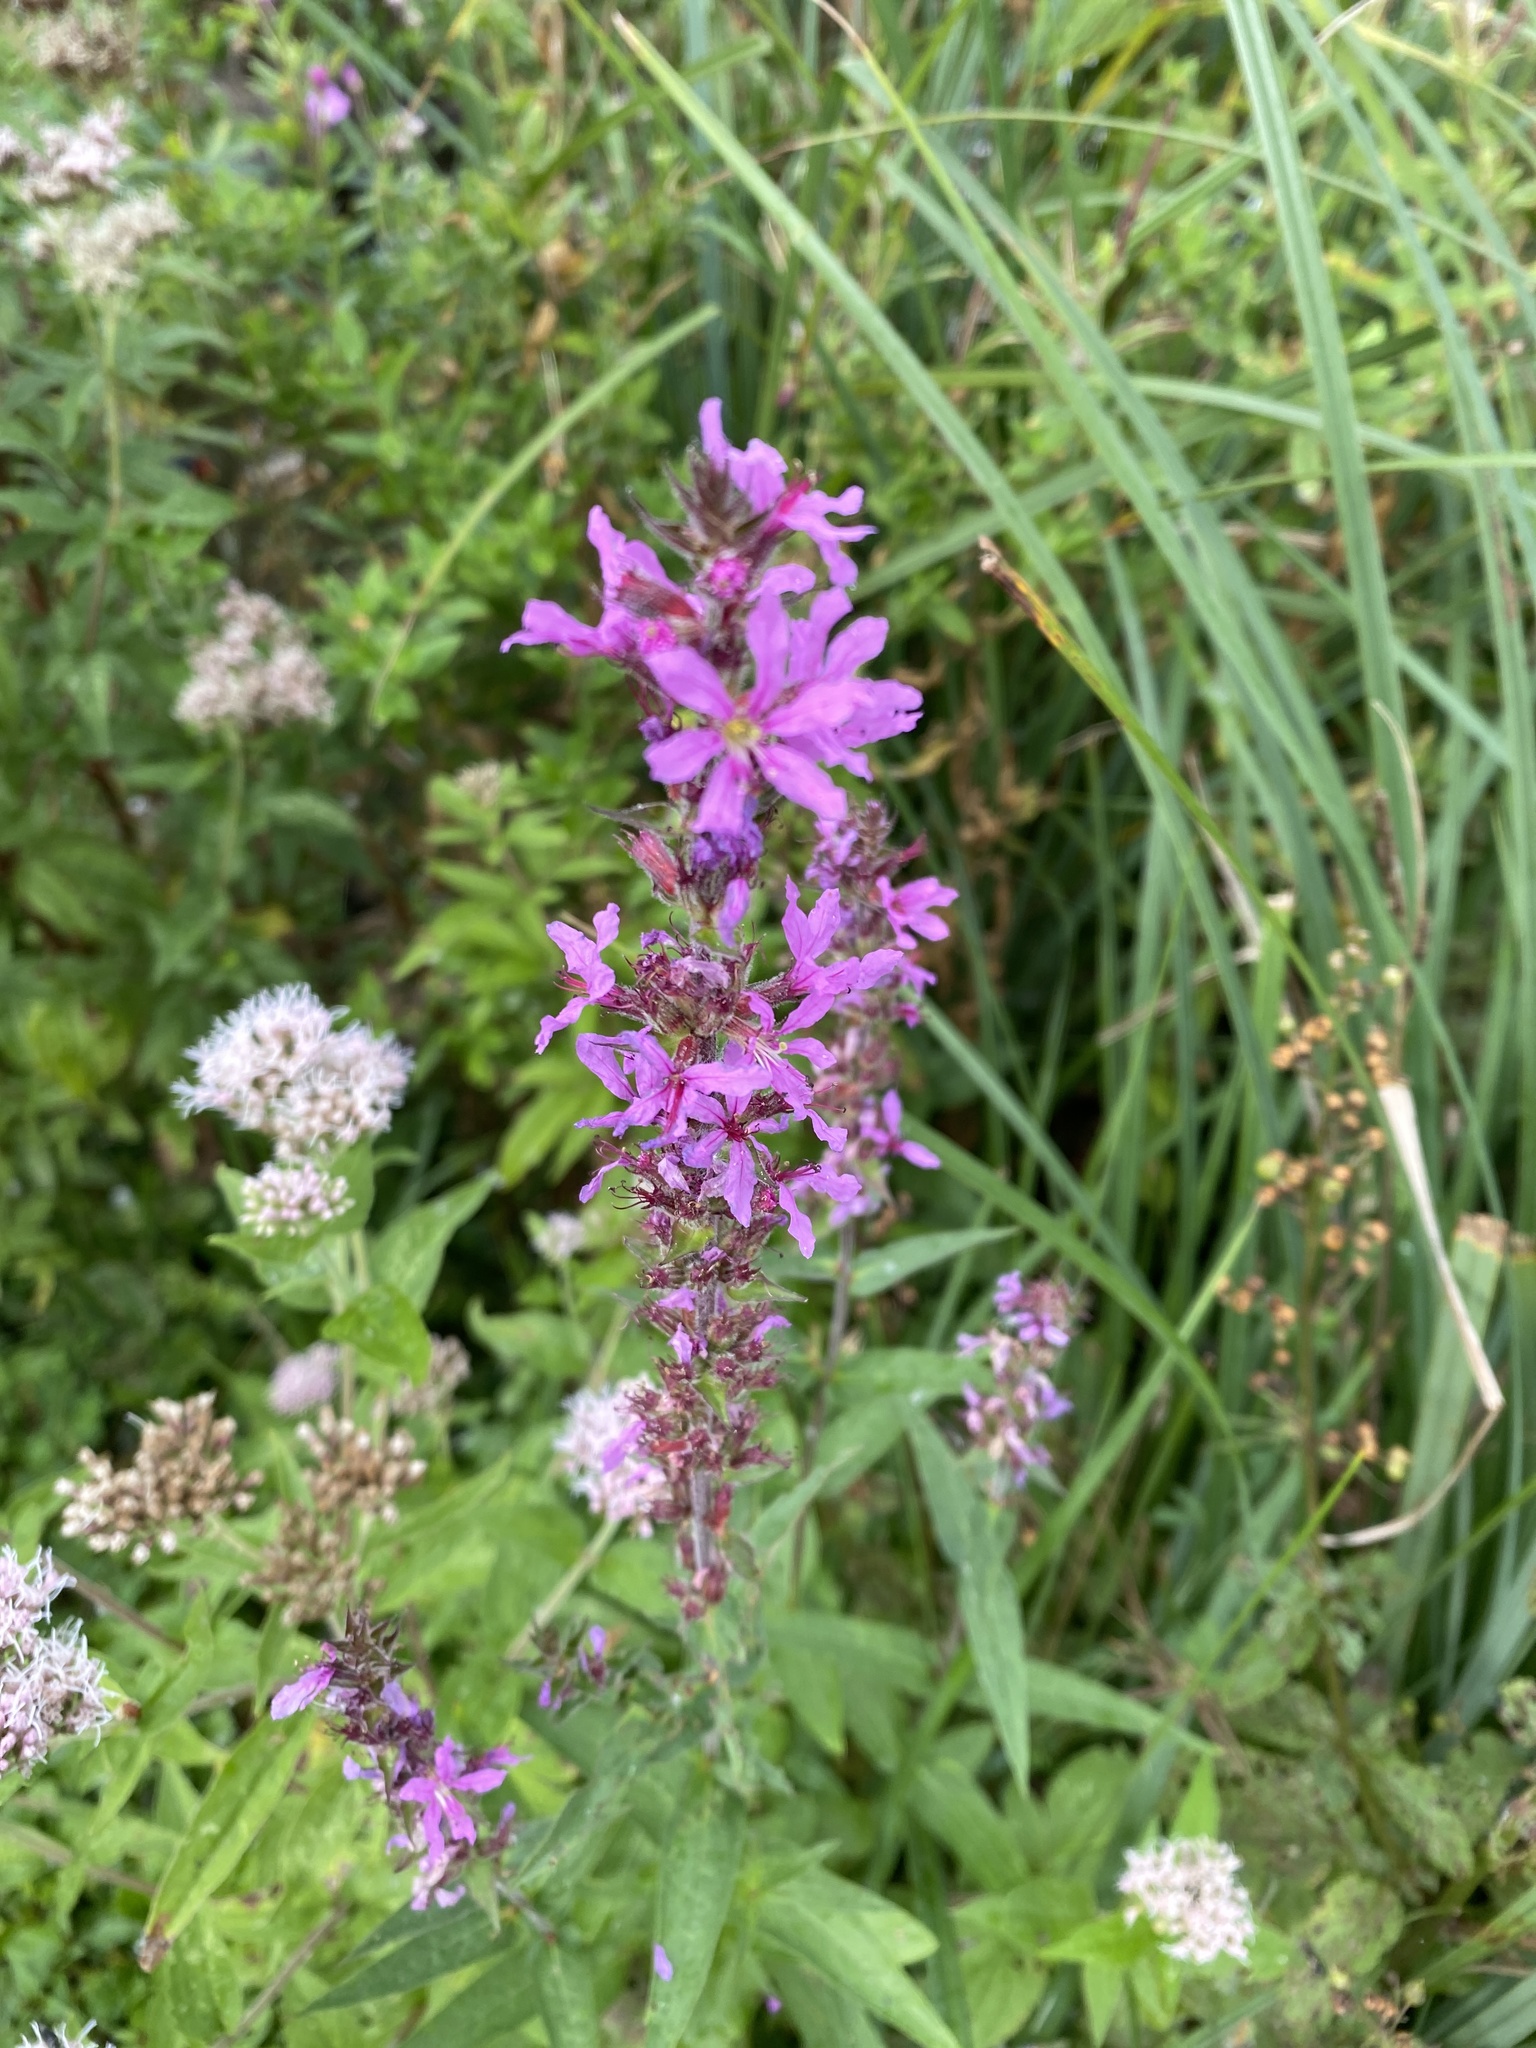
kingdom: Plantae
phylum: Tracheophyta
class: Magnoliopsida
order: Myrtales
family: Lythraceae
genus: Lythrum
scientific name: Lythrum salicaria
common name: Purple loosestrife
